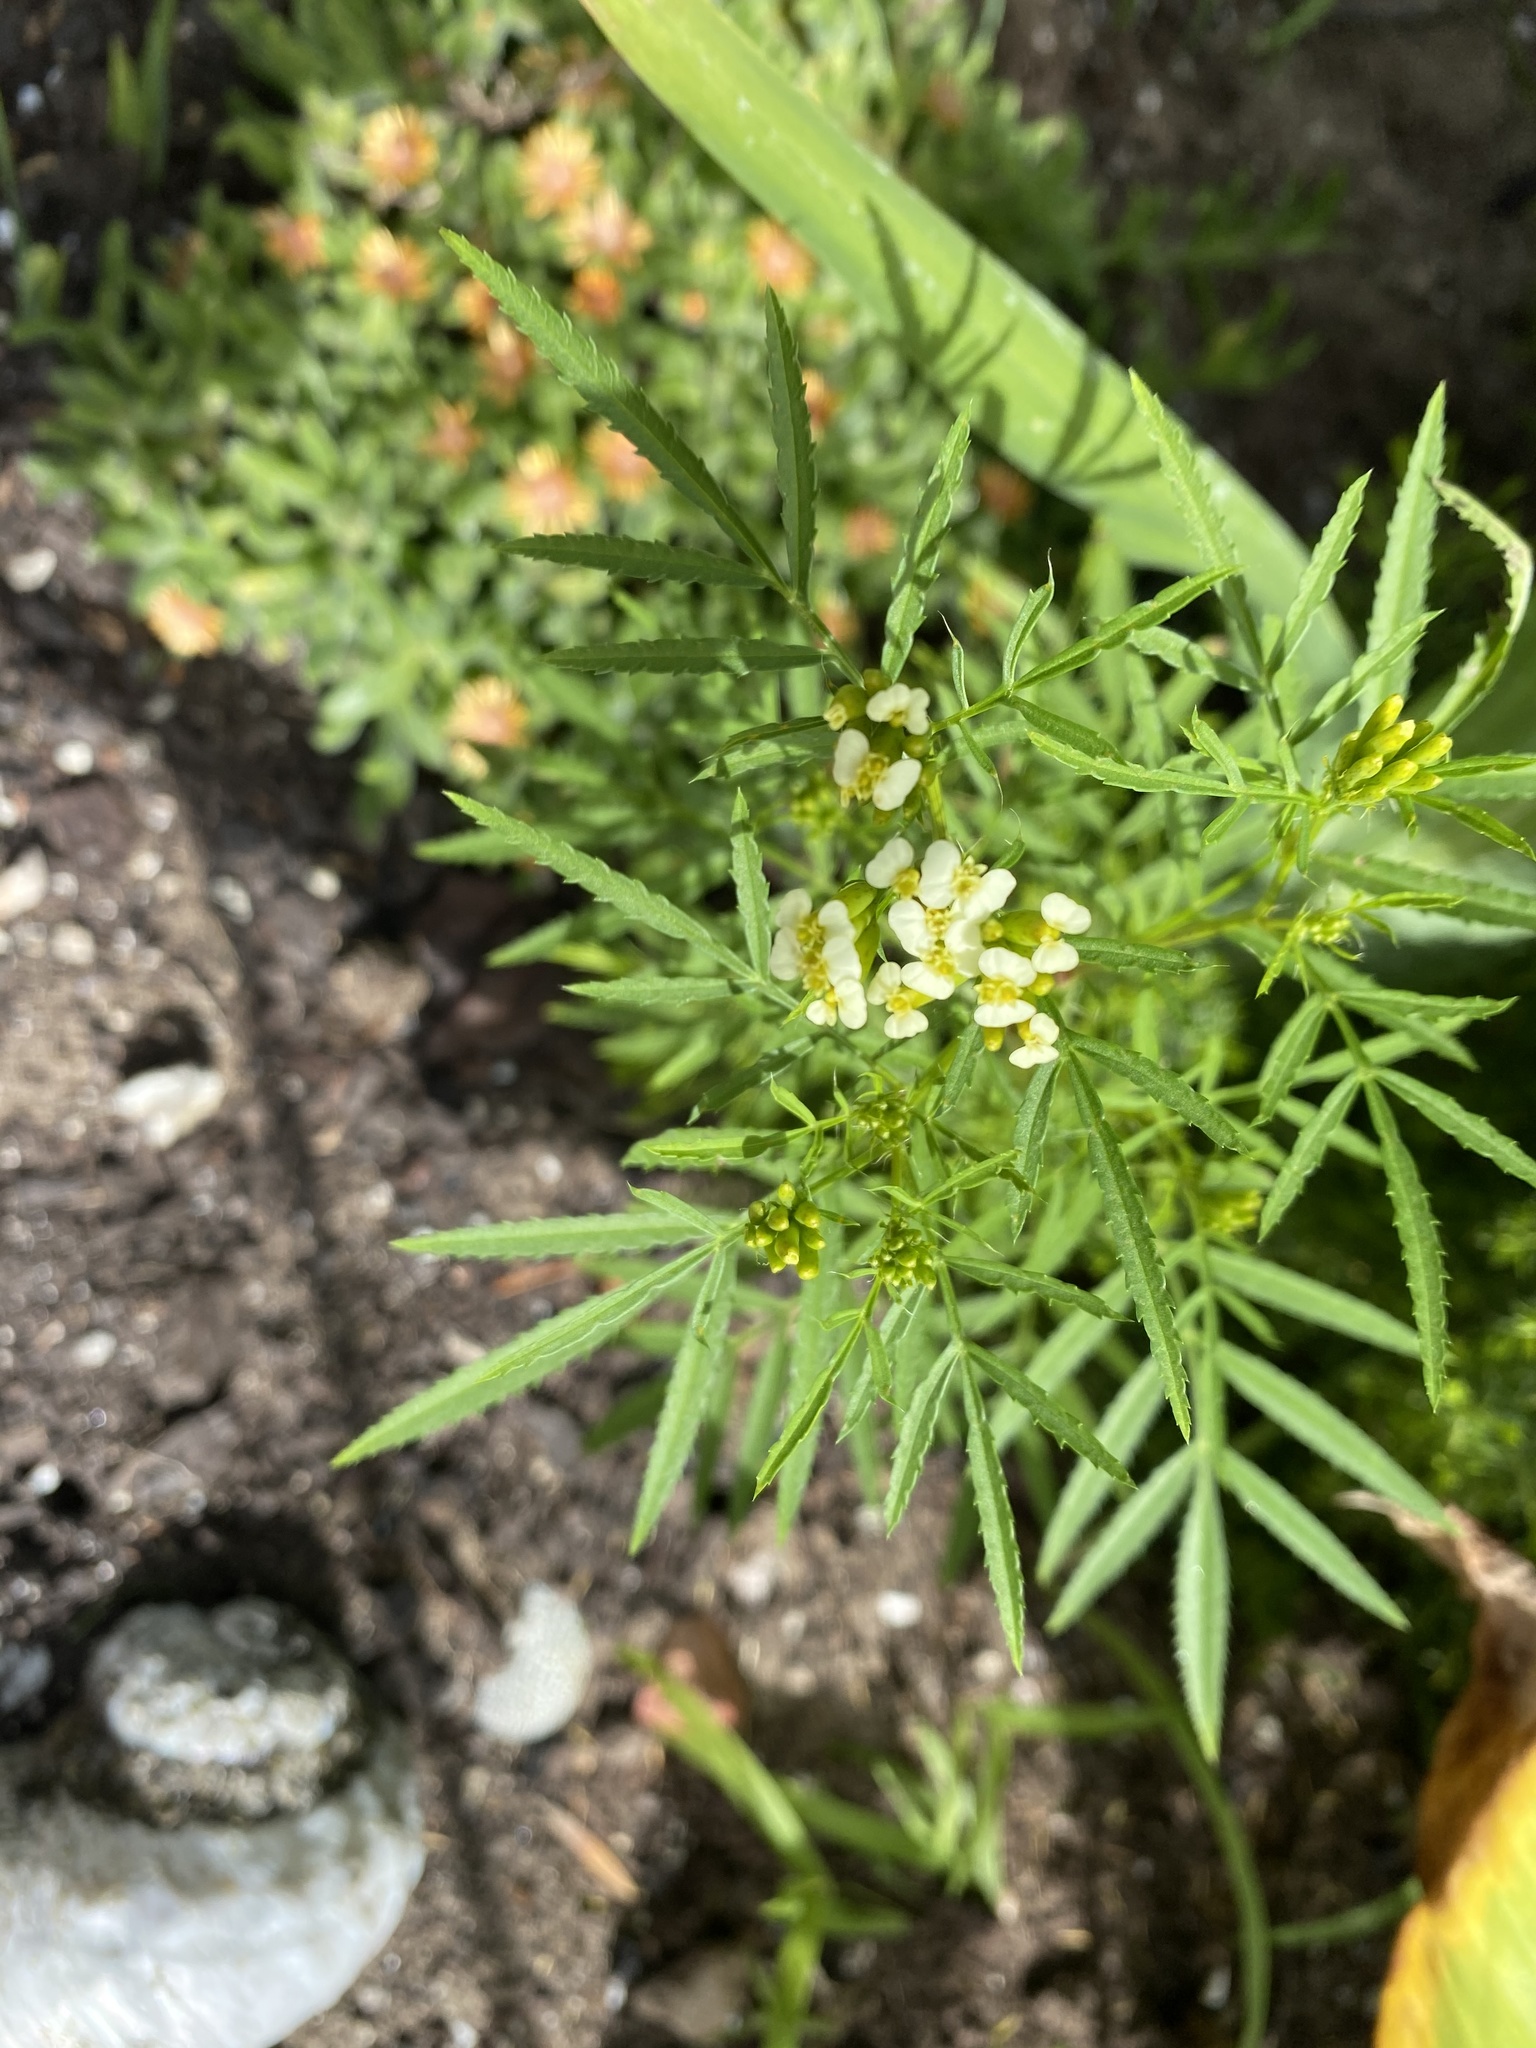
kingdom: Plantae
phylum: Tracheophyta
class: Magnoliopsida
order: Asterales
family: Asteraceae
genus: Tagetes
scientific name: Tagetes minuta
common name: Muster john henry
